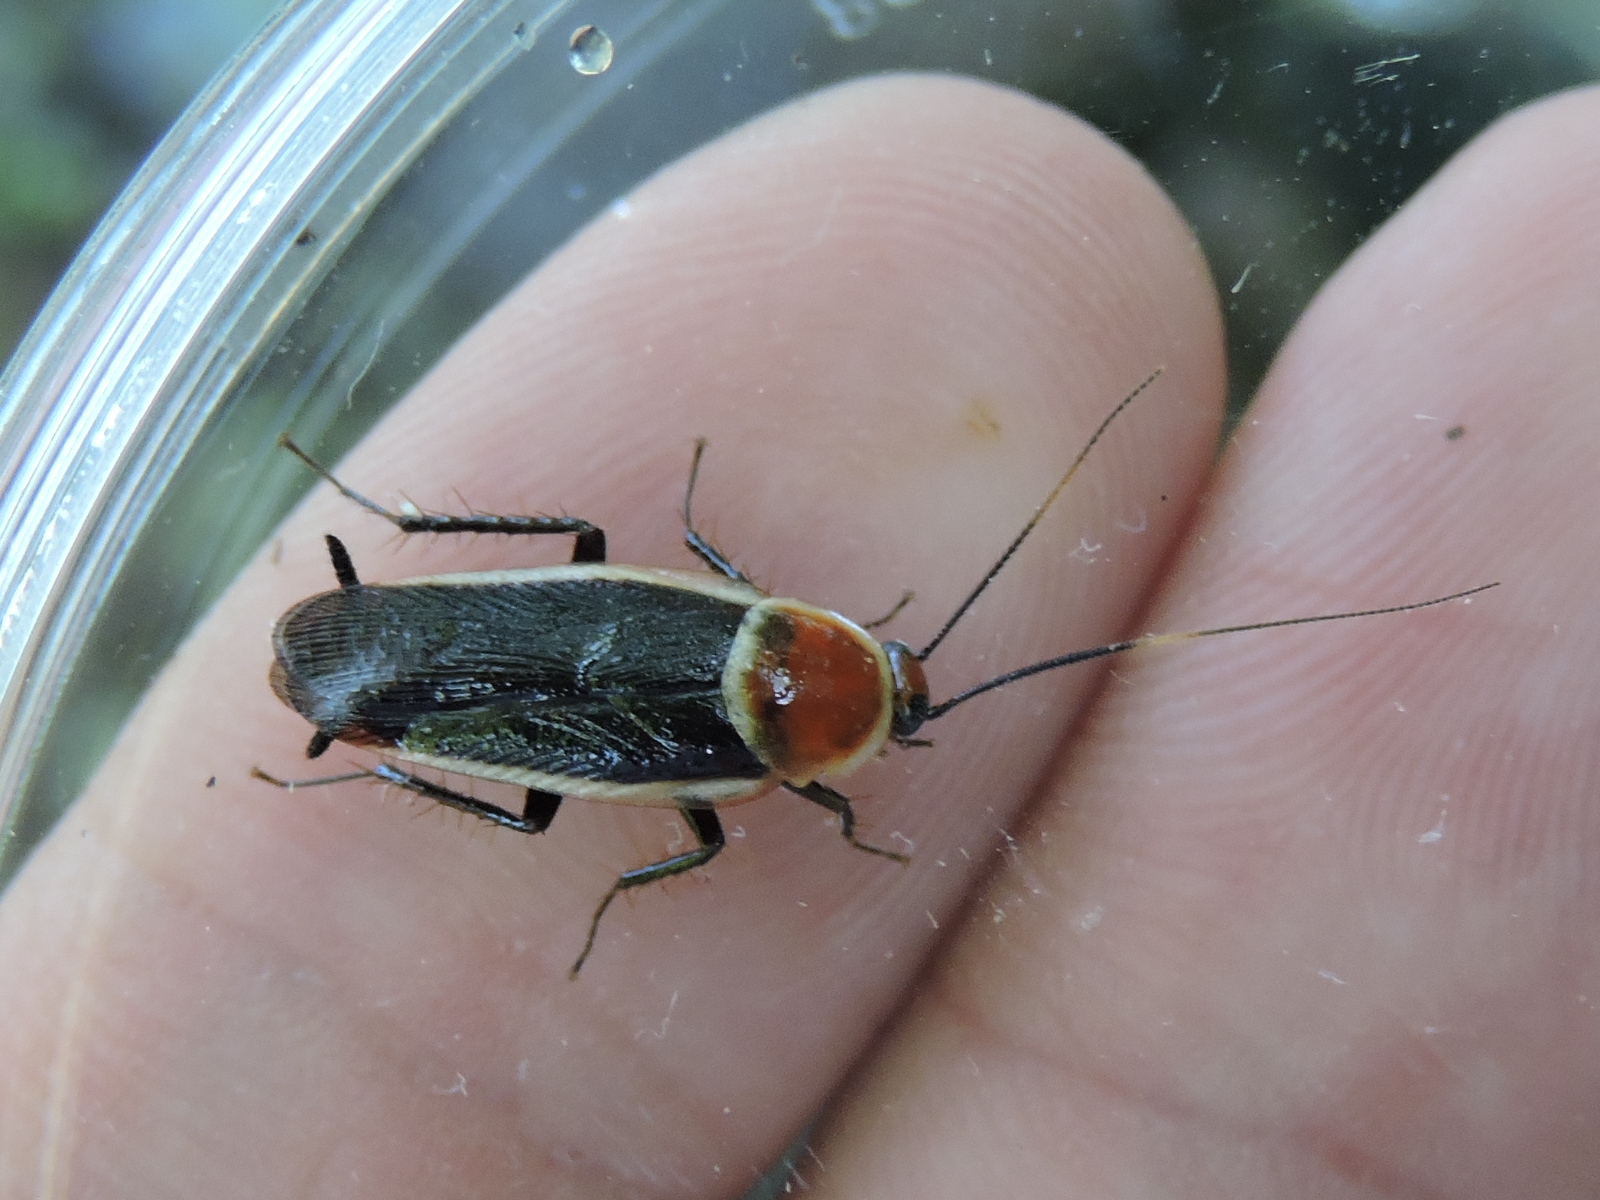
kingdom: Animalia
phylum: Arthropoda
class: Insecta
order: Blattodea
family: Ectobiidae
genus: Pseudomops
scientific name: Pseudomops septentrionalis
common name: Pale-bordered field cockroach
